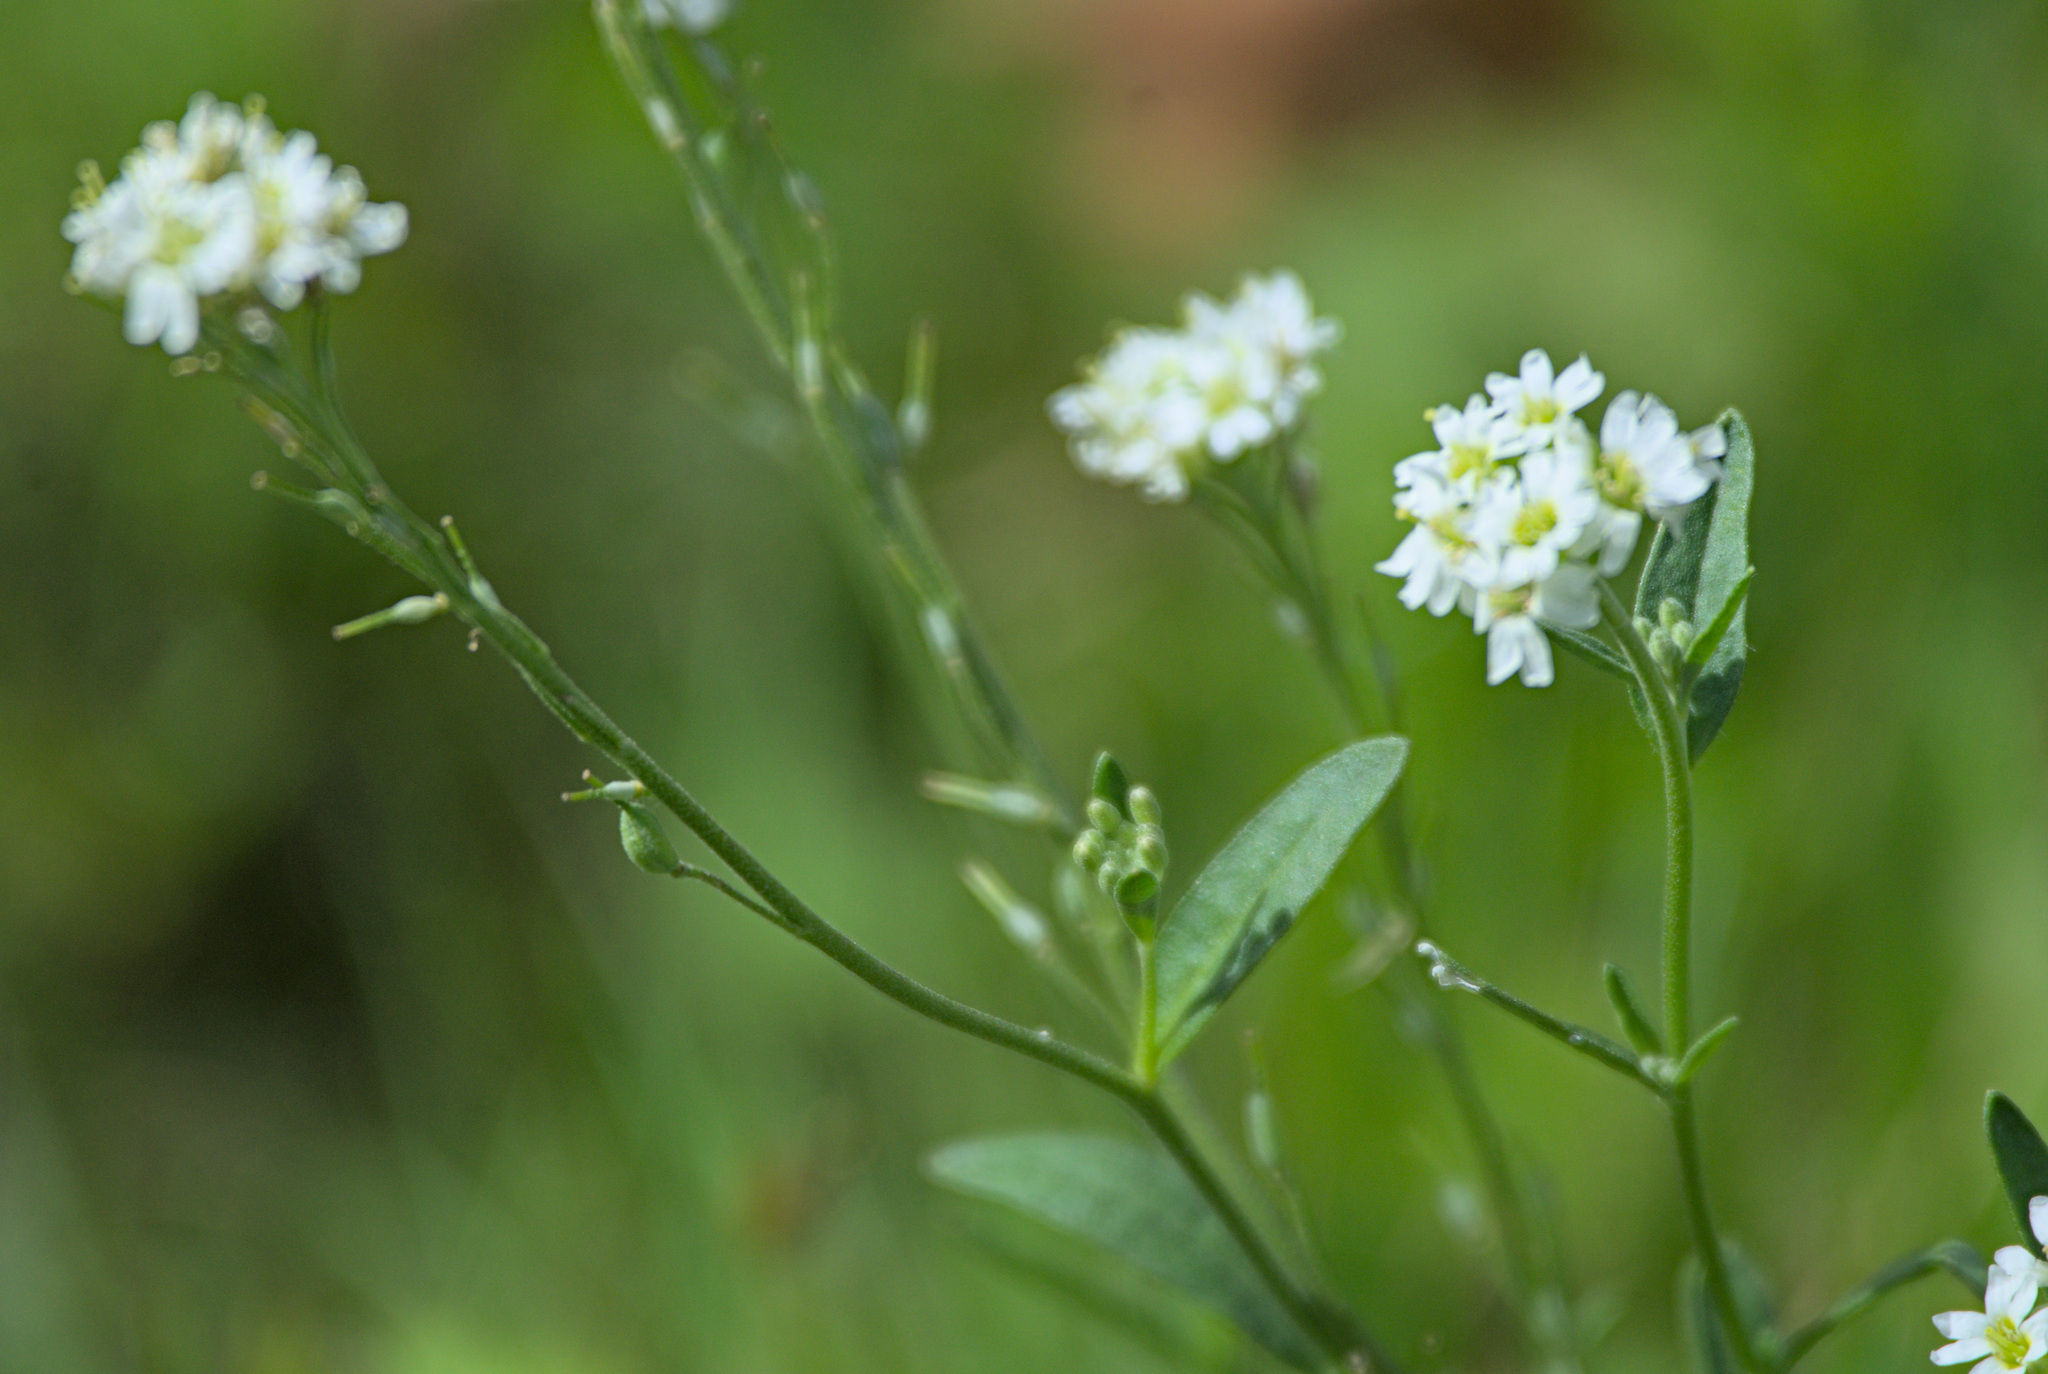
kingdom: Plantae
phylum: Tracheophyta
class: Magnoliopsida
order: Brassicales
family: Brassicaceae
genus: Berteroa
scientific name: Berteroa incana
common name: Hoary alison
